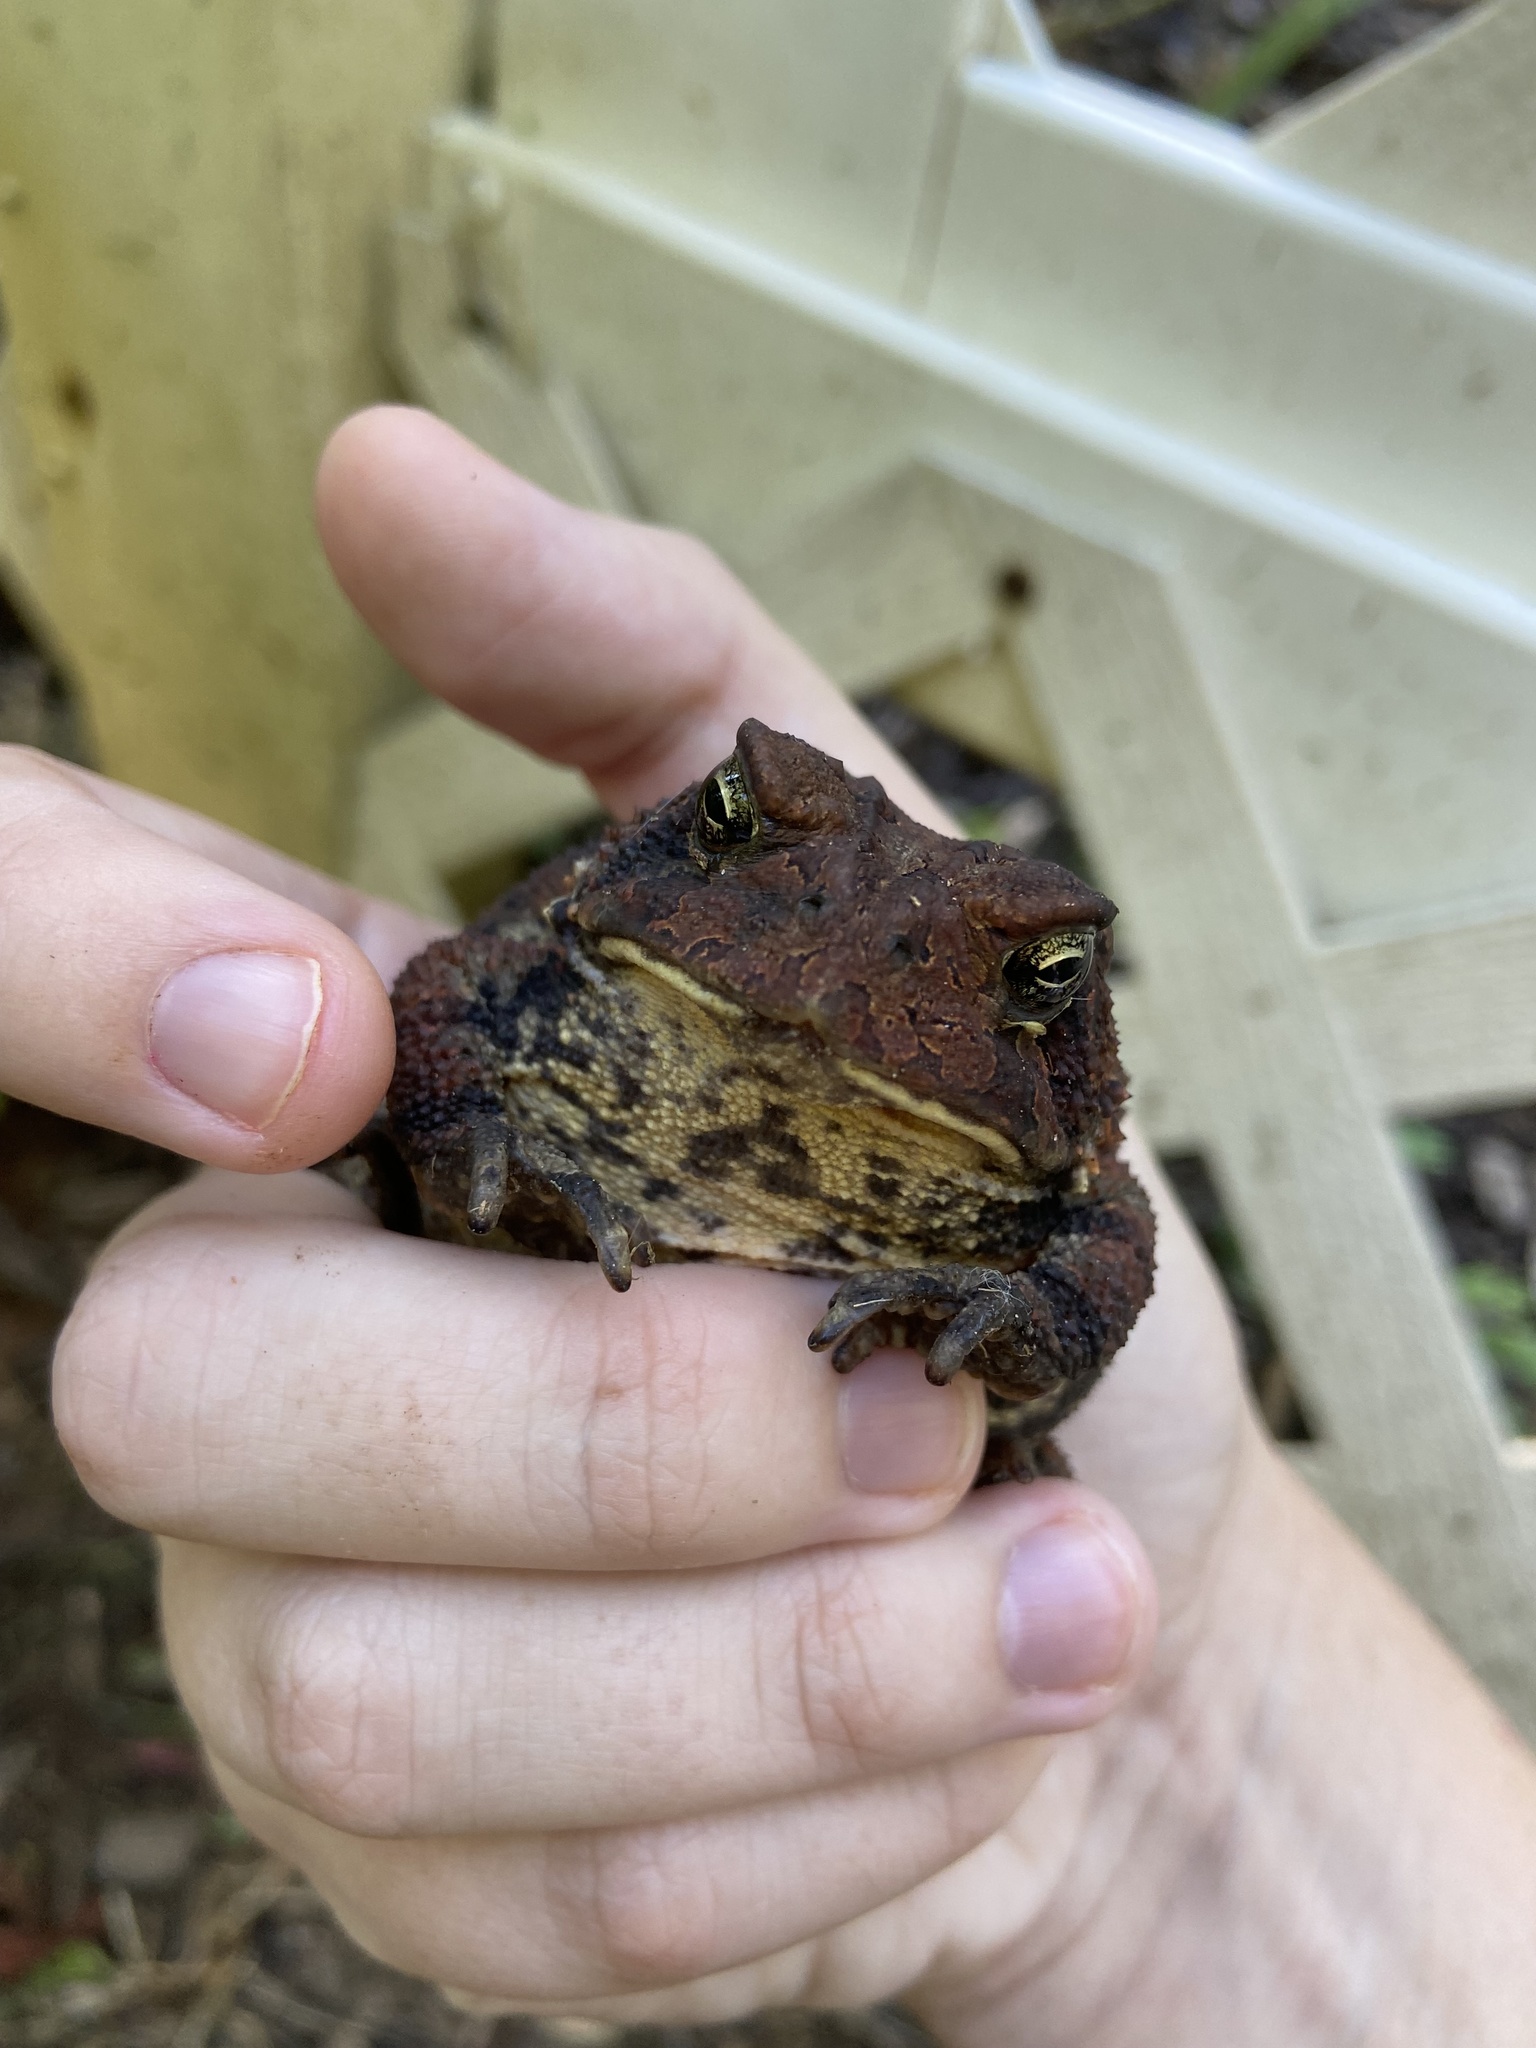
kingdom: Animalia
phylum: Chordata
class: Amphibia
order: Anura
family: Bufonidae
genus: Anaxyrus
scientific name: Anaxyrus americanus
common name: American toad
